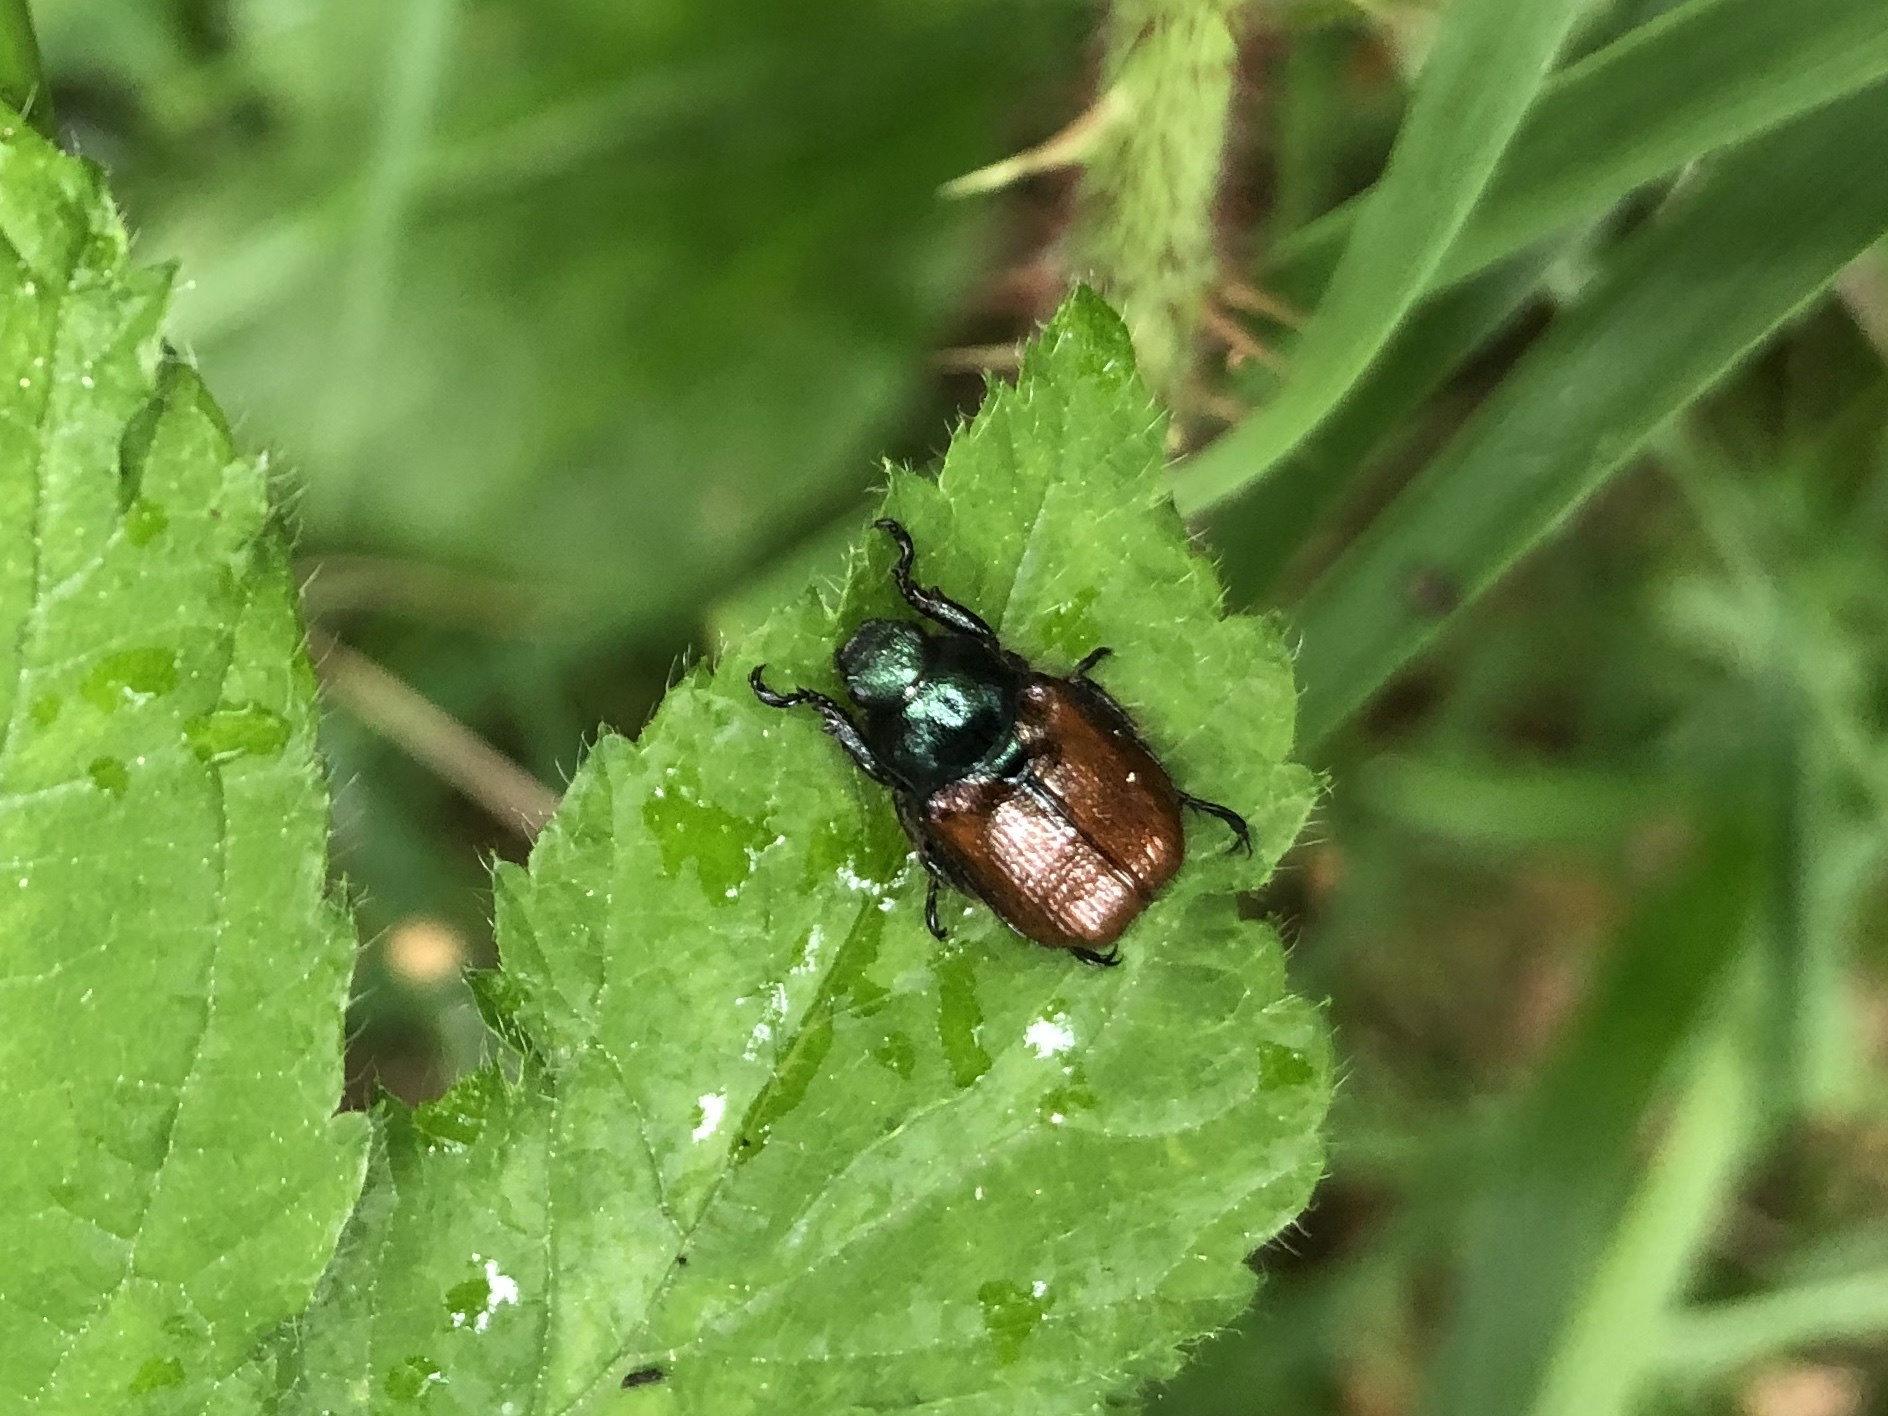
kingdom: Animalia
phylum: Arthropoda
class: Insecta
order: Coleoptera
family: Scarabaeidae
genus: Phyllopertha
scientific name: Phyllopertha horticola
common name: Garden chafer
